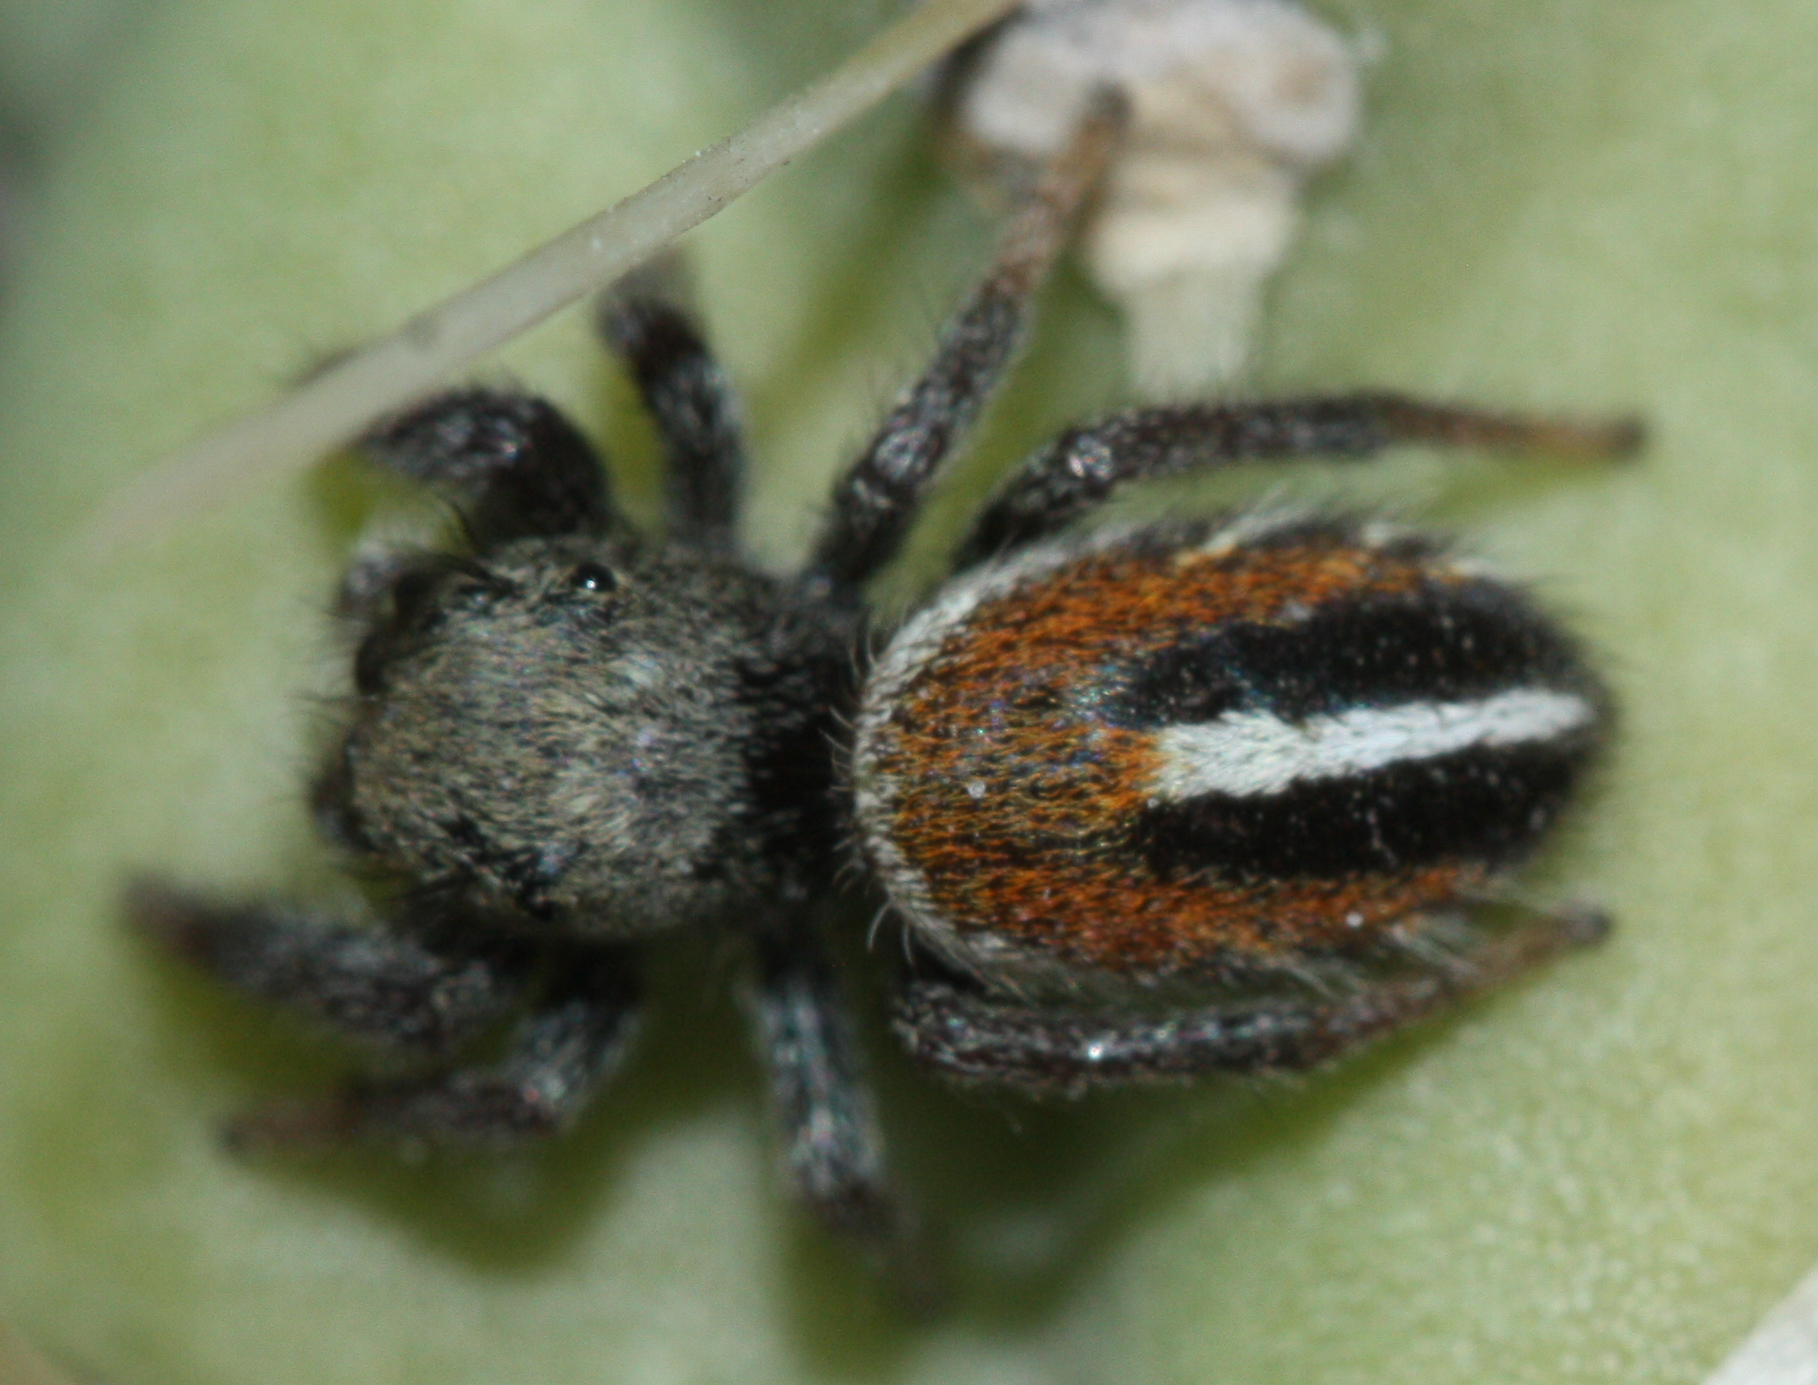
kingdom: Animalia
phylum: Arthropoda
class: Arachnida
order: Araneae
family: Salticidae
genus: Phidippus
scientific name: Phidippus ardens
